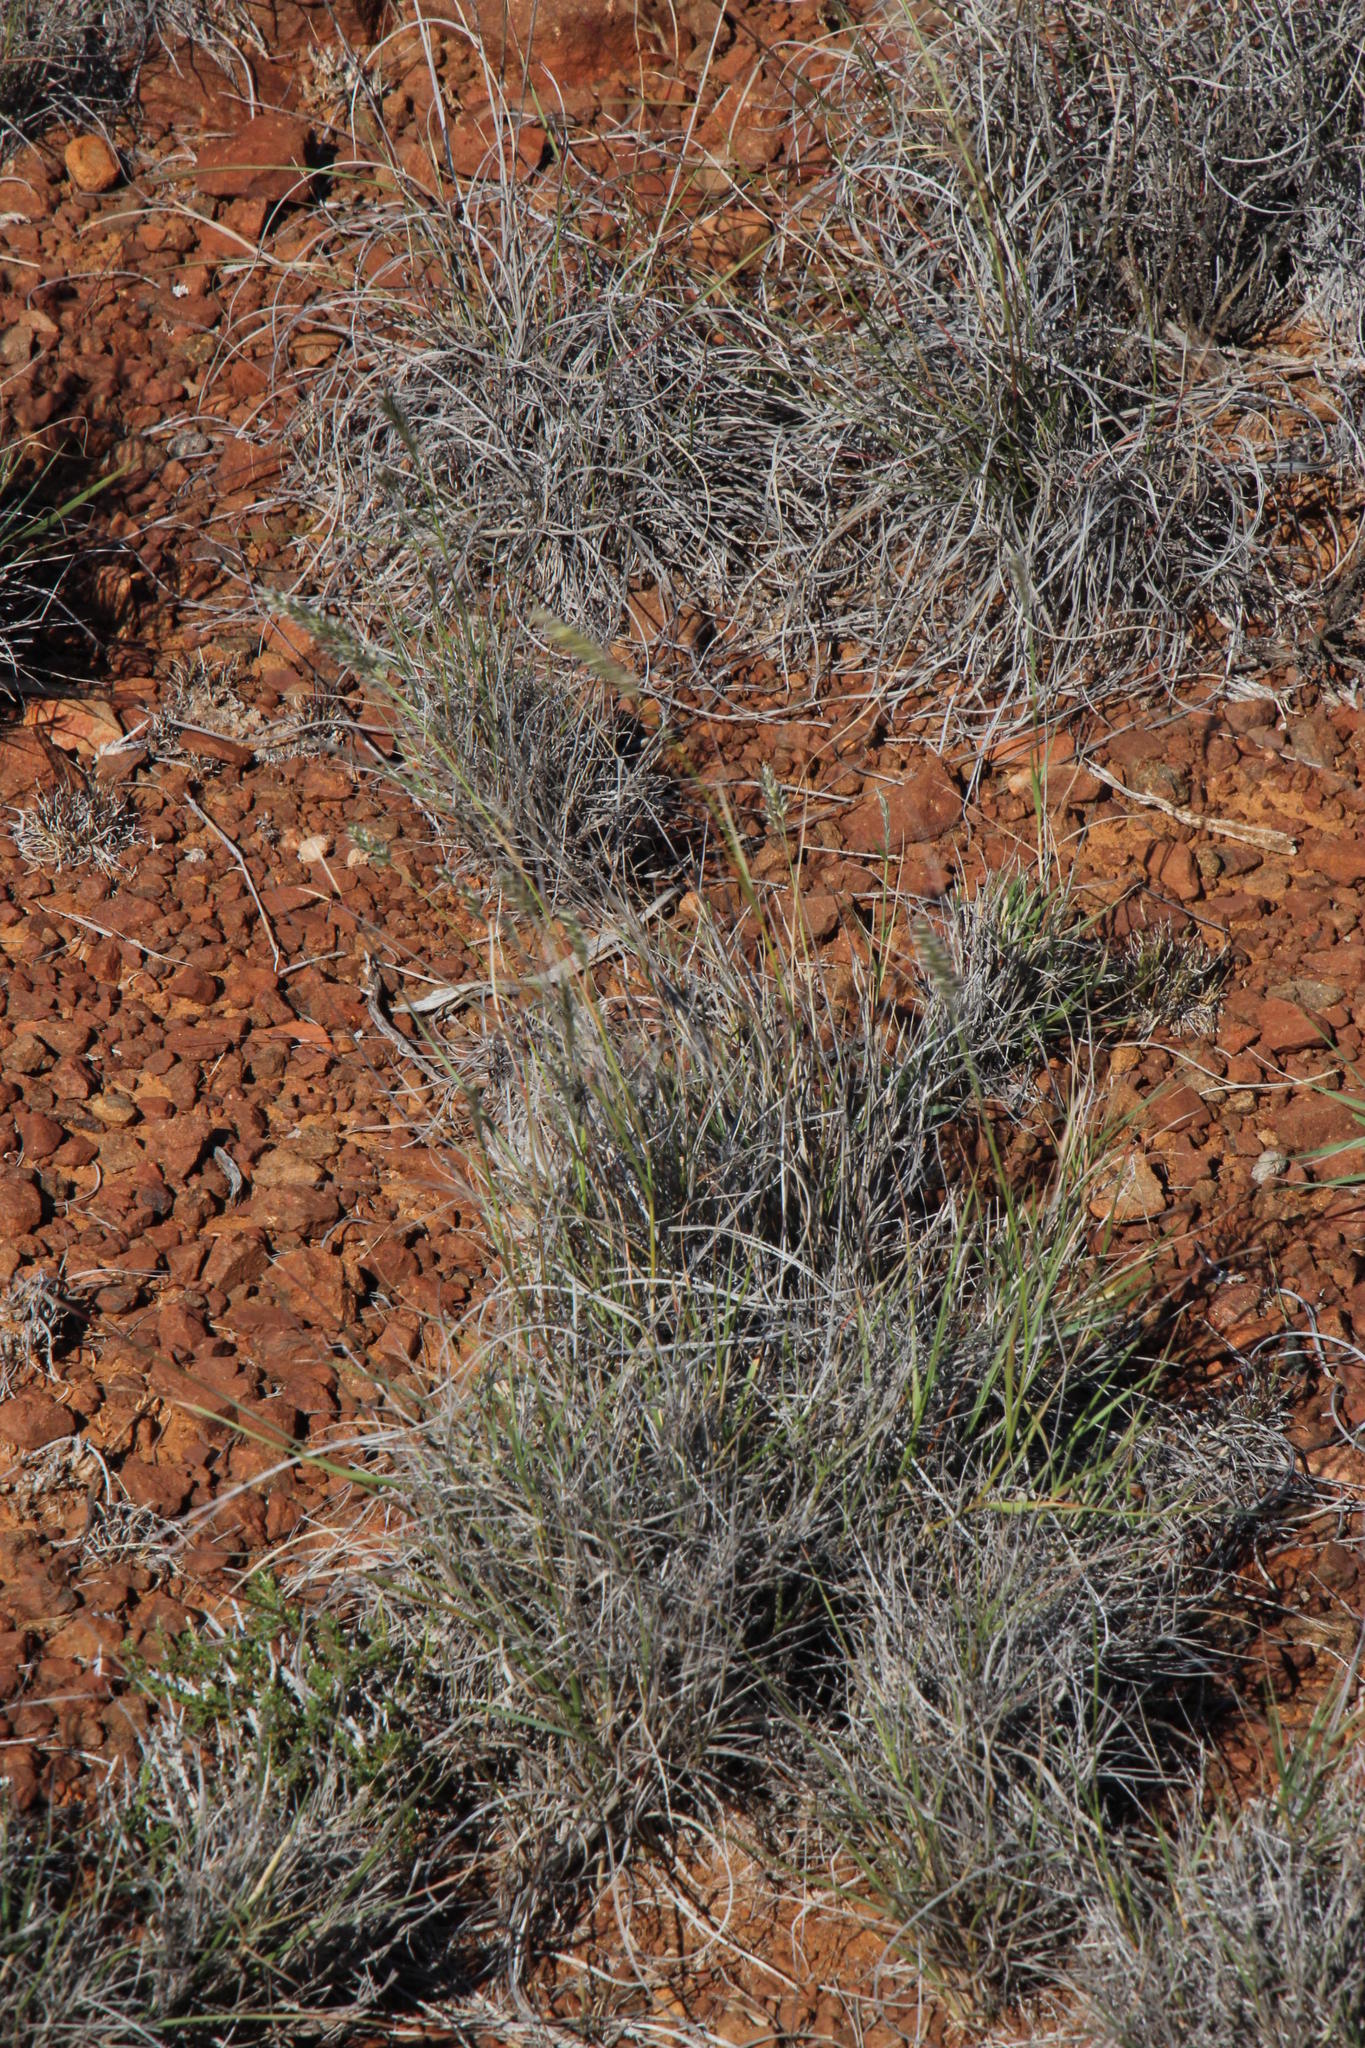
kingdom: Plantae
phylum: Tracheophyta
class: Liliopsida
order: Poales
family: Poaceae
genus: Enneapogon
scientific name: Enneapogon scoparius
